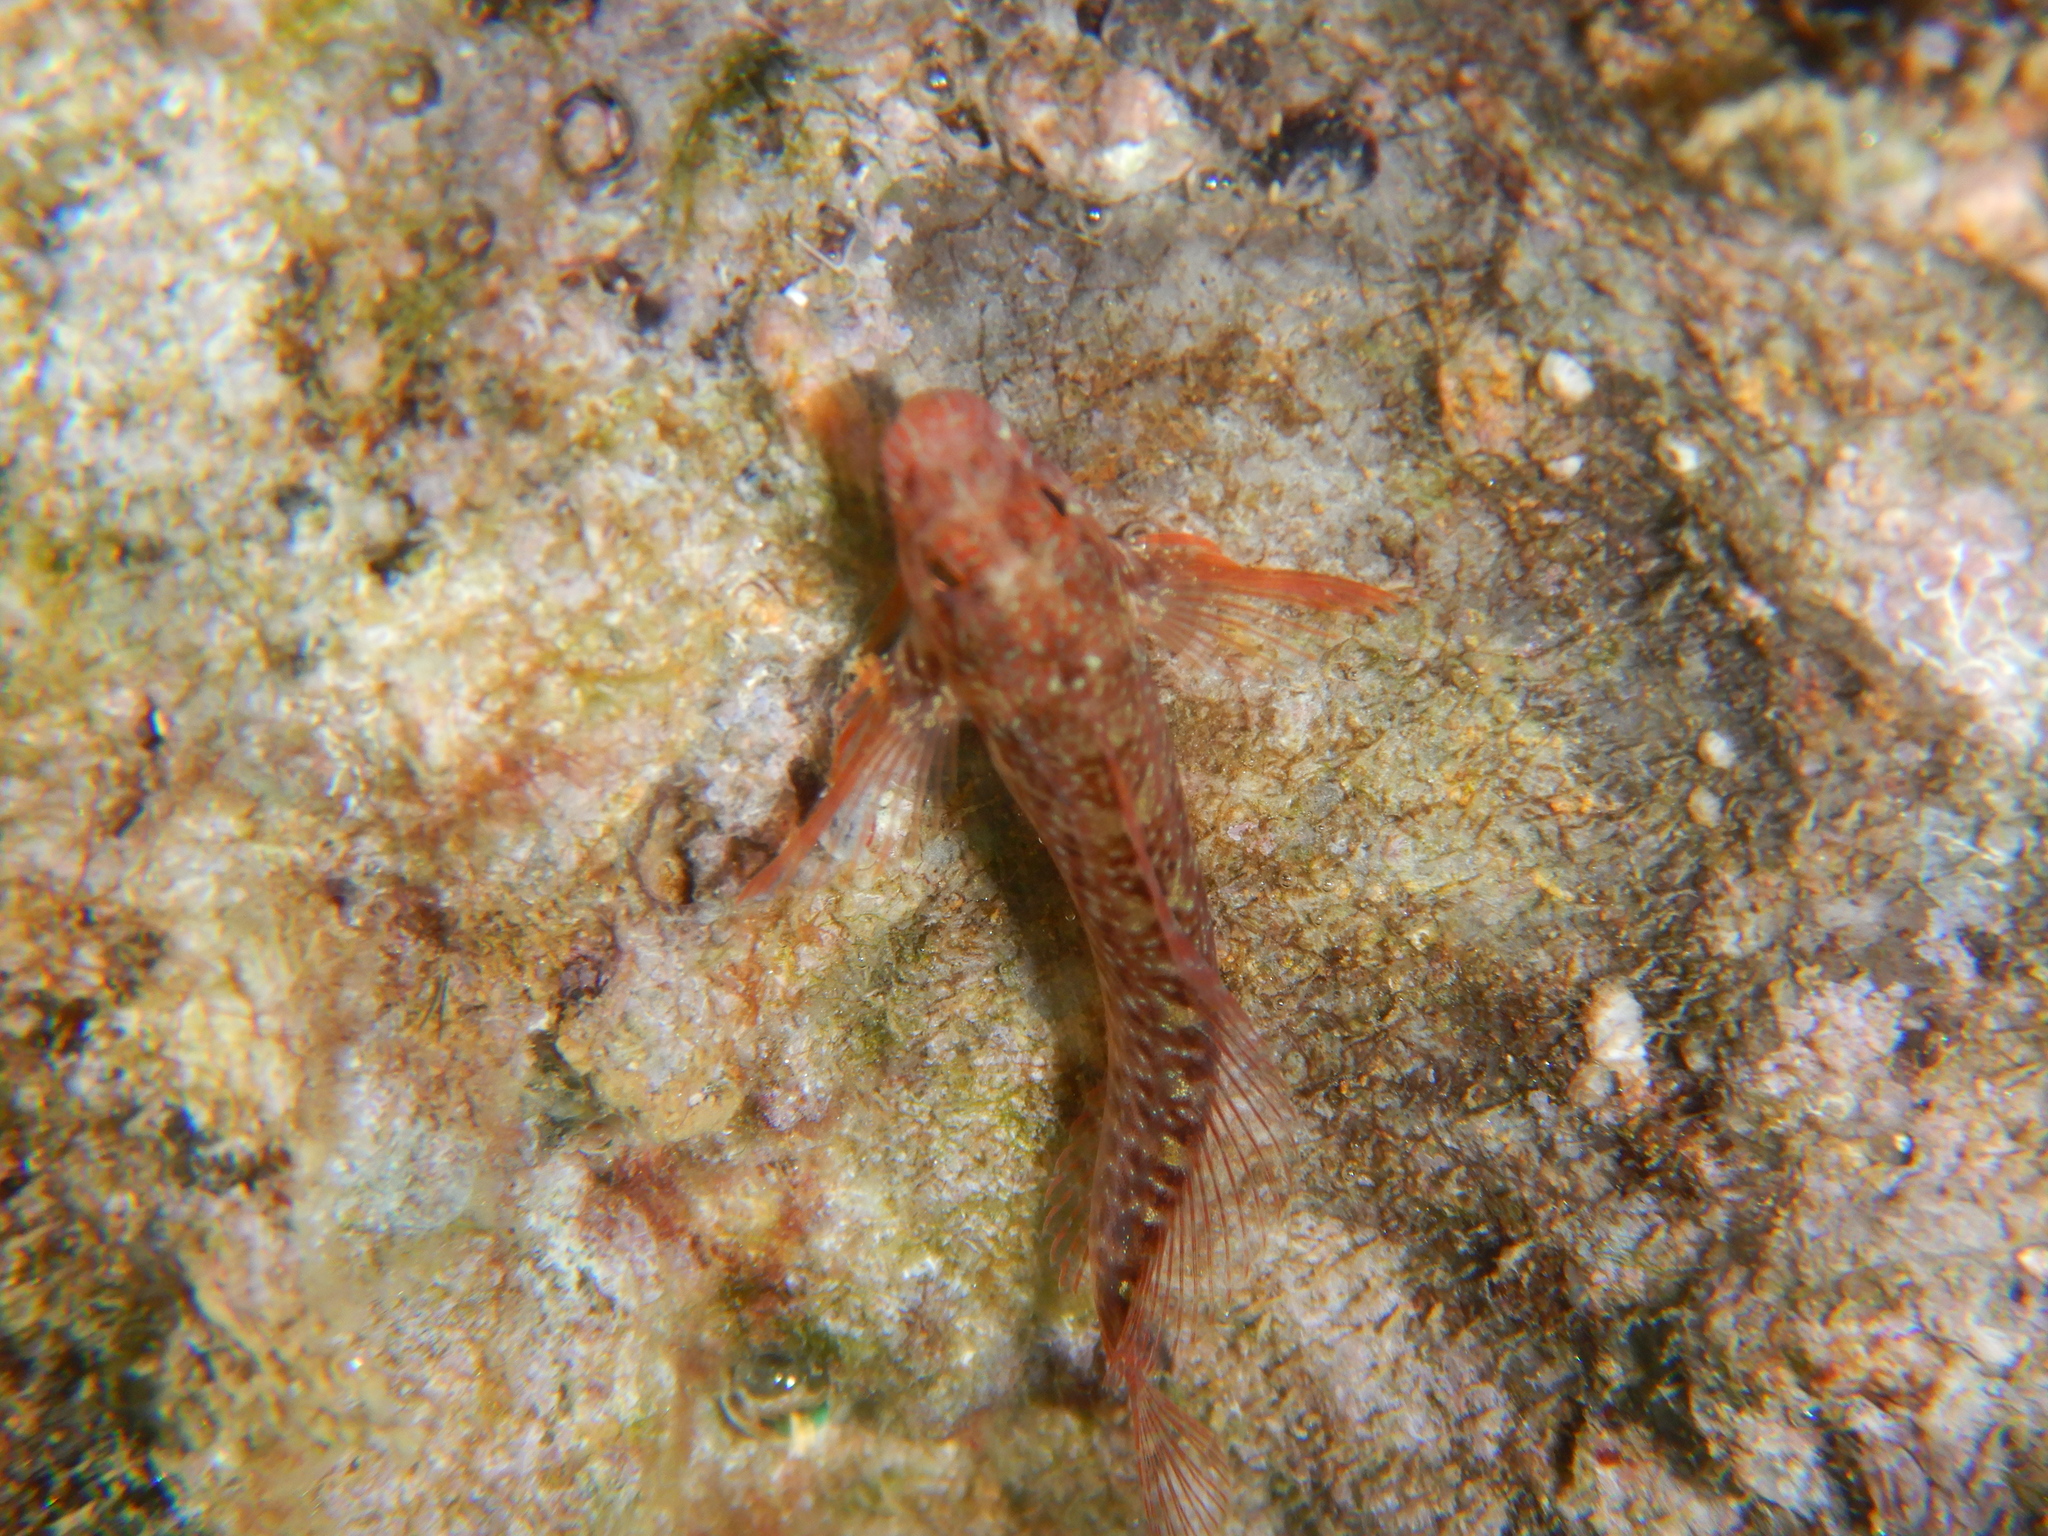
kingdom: Animalia
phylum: Chordata
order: Perciformes
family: Blenniidae
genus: Parablennius
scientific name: Parablennius zvonimiri
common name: Red blenny
